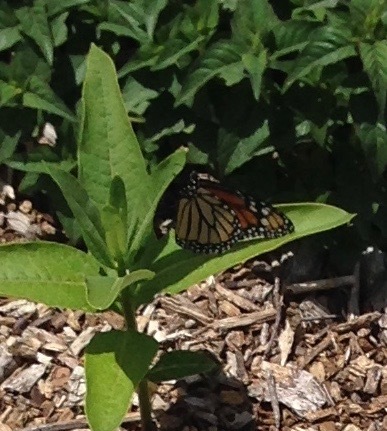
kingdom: Animalia
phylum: Arthropoda
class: Insecta
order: Lepidoptera
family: Nymphalidae
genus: Danaus
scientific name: Danaus plexippus
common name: Monarch
